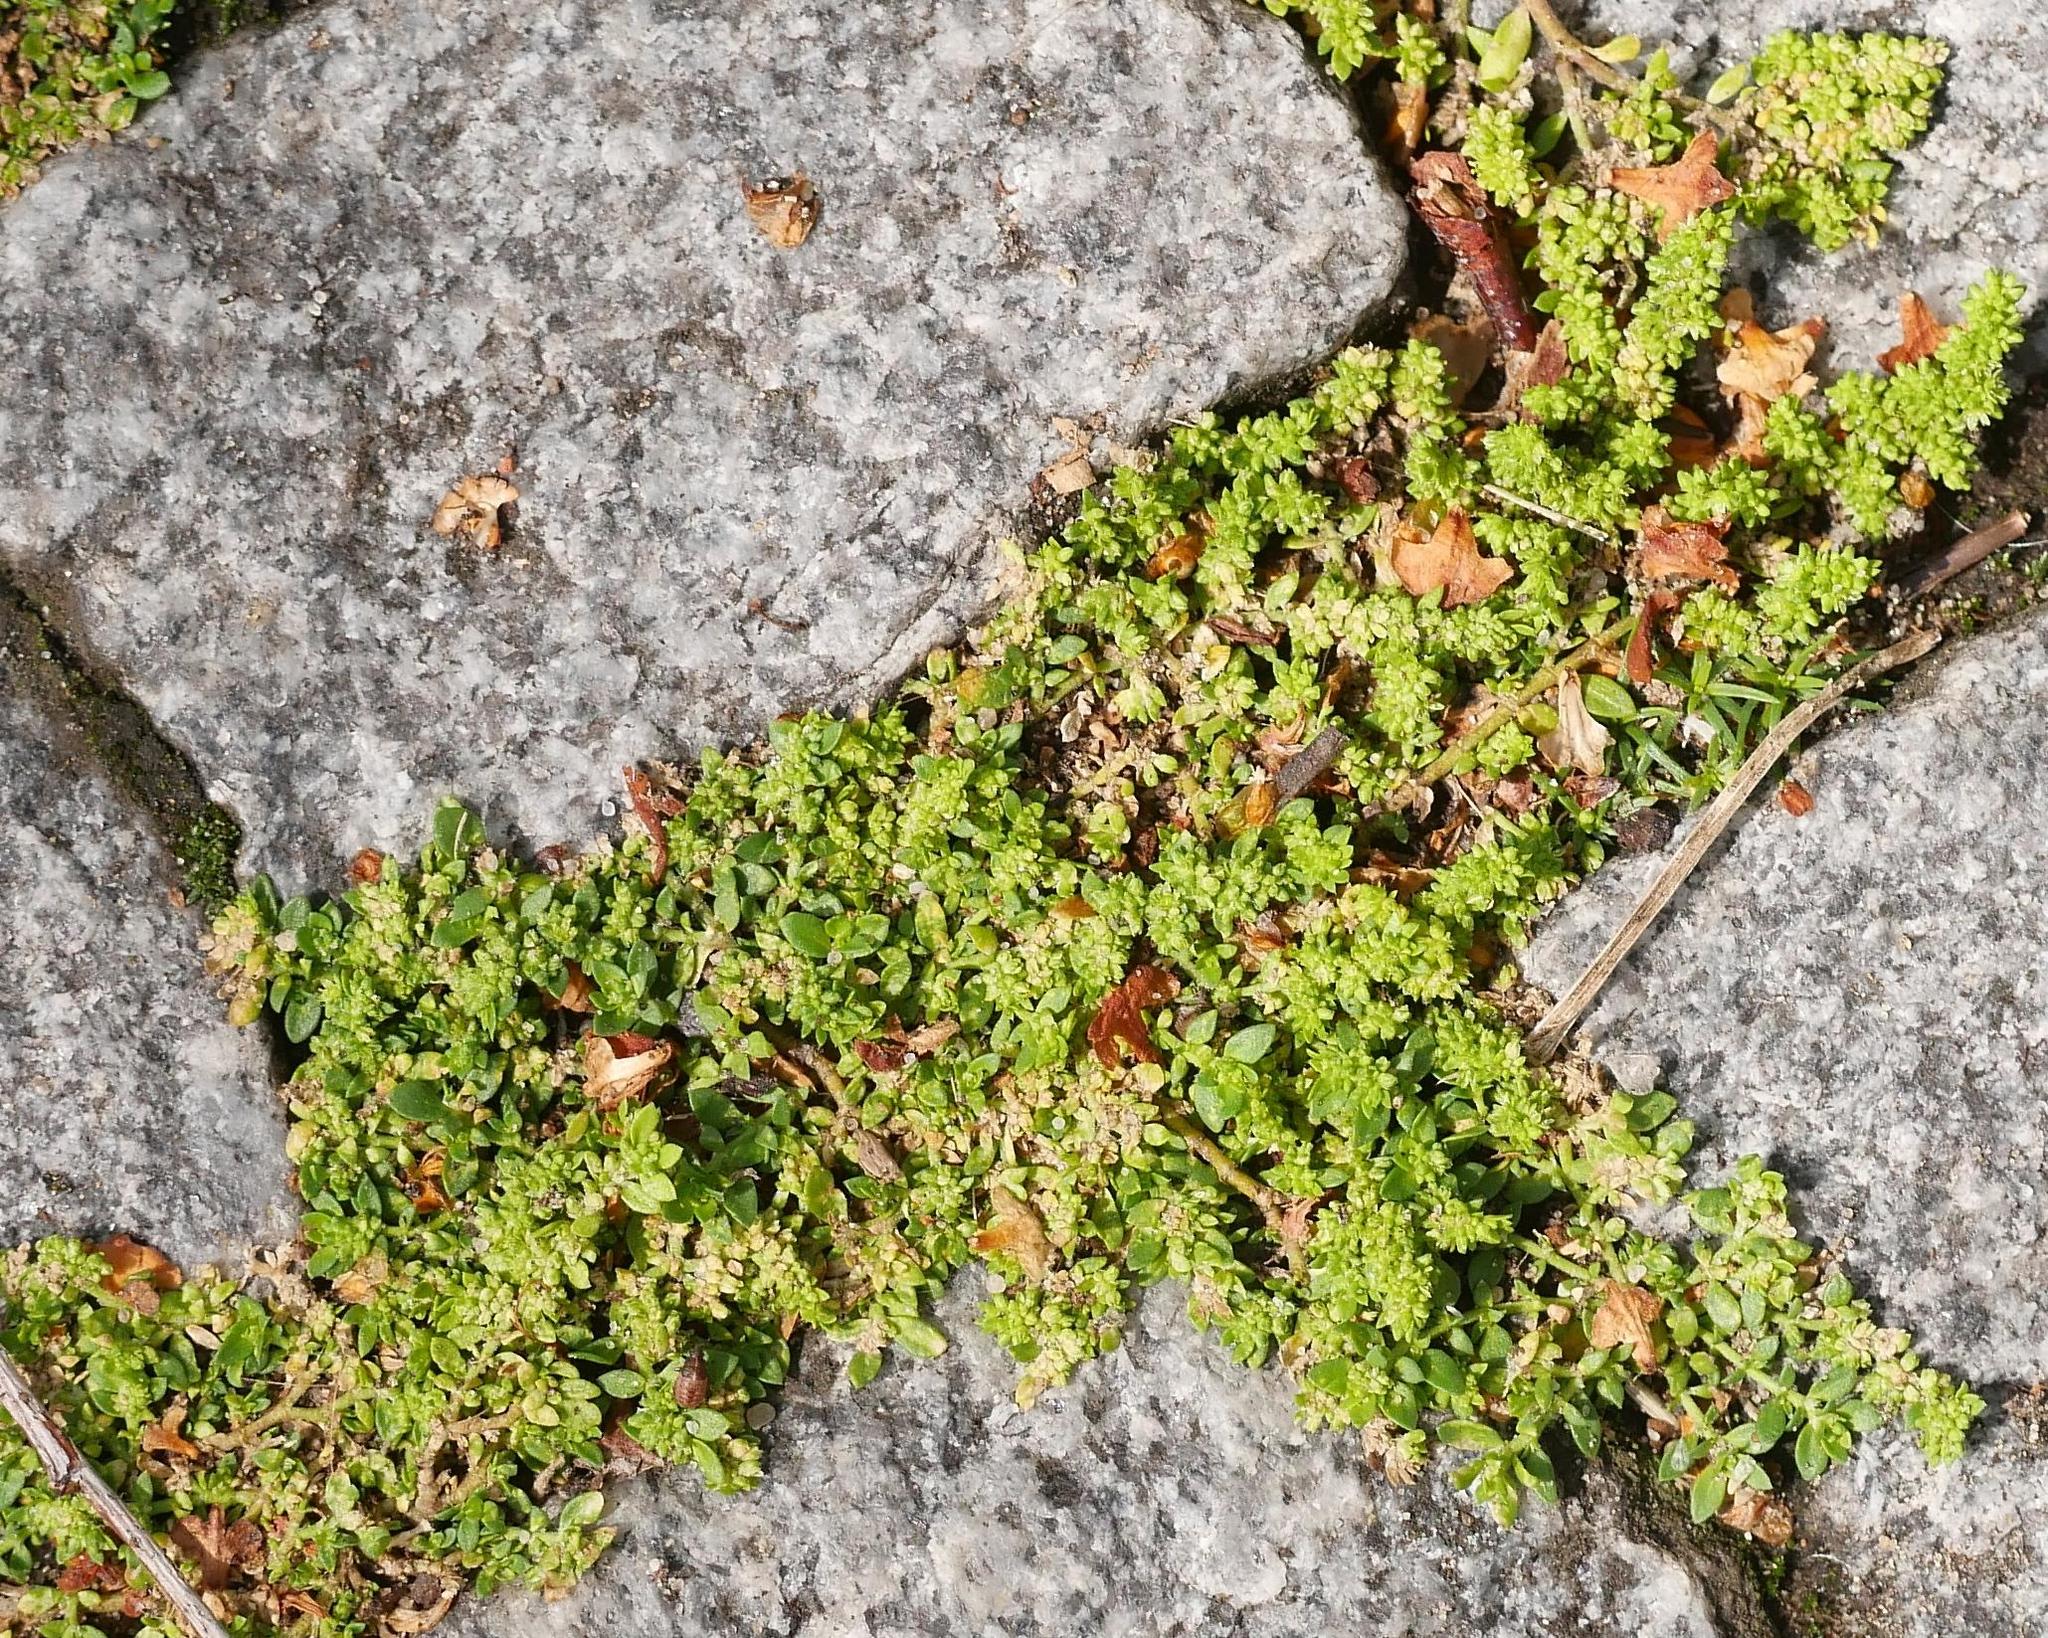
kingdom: Plantae
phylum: Tracheophyta
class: Magnoliopsida
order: Caryophyllales
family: Caryophyllaceae
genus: Herniaria
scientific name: Herniaria glabra
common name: Smooth rupturewort
